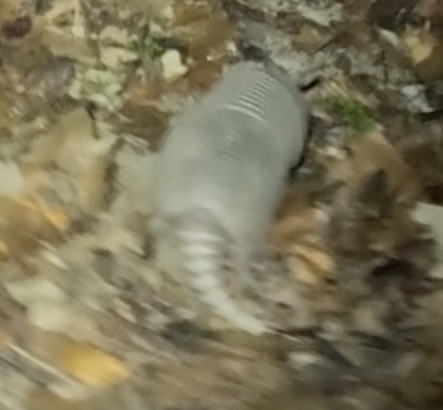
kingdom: Animalia
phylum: Chordata
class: Mammalia
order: Cingulata
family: Dasypodidae
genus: Dasypus
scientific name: Dasypus novemcinctus
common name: Nine-banded armadillo
